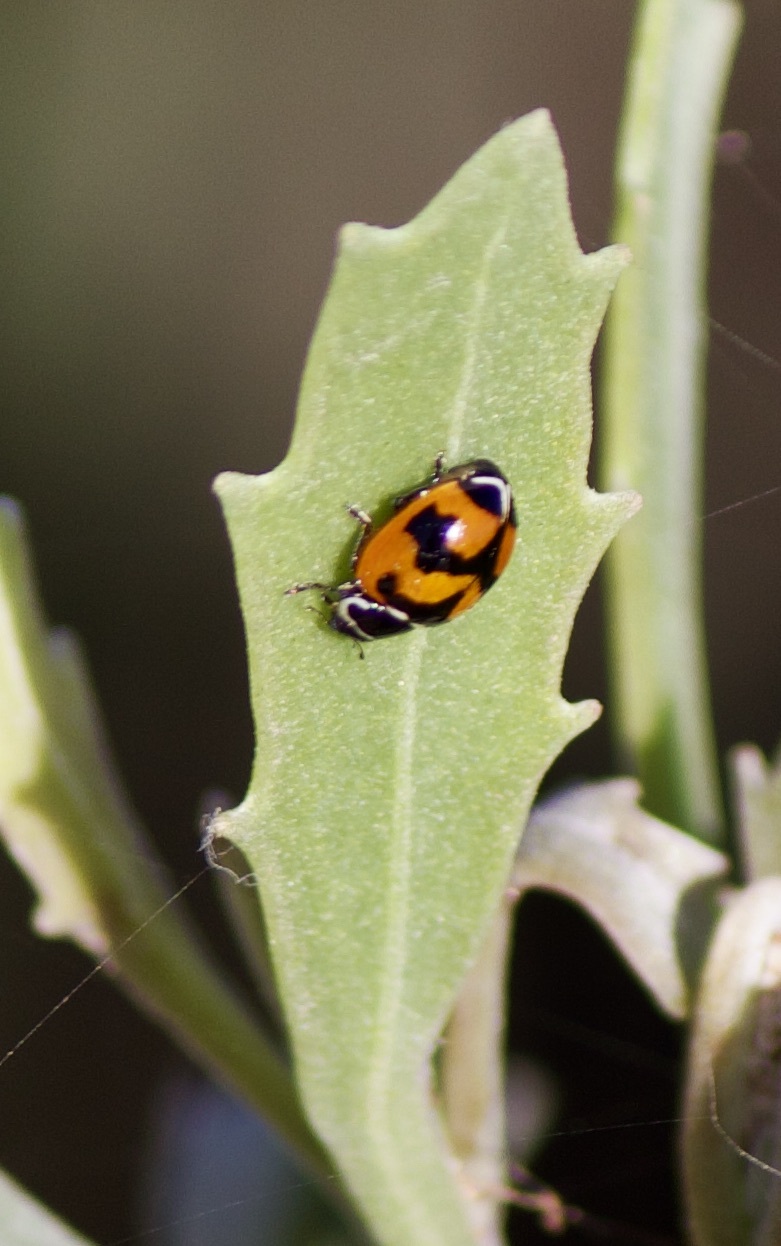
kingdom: Animalia
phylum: Arthropoda
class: Insecta
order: Coleoptera
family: Coccinellidae
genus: Adalia
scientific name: Adalia deficiens
